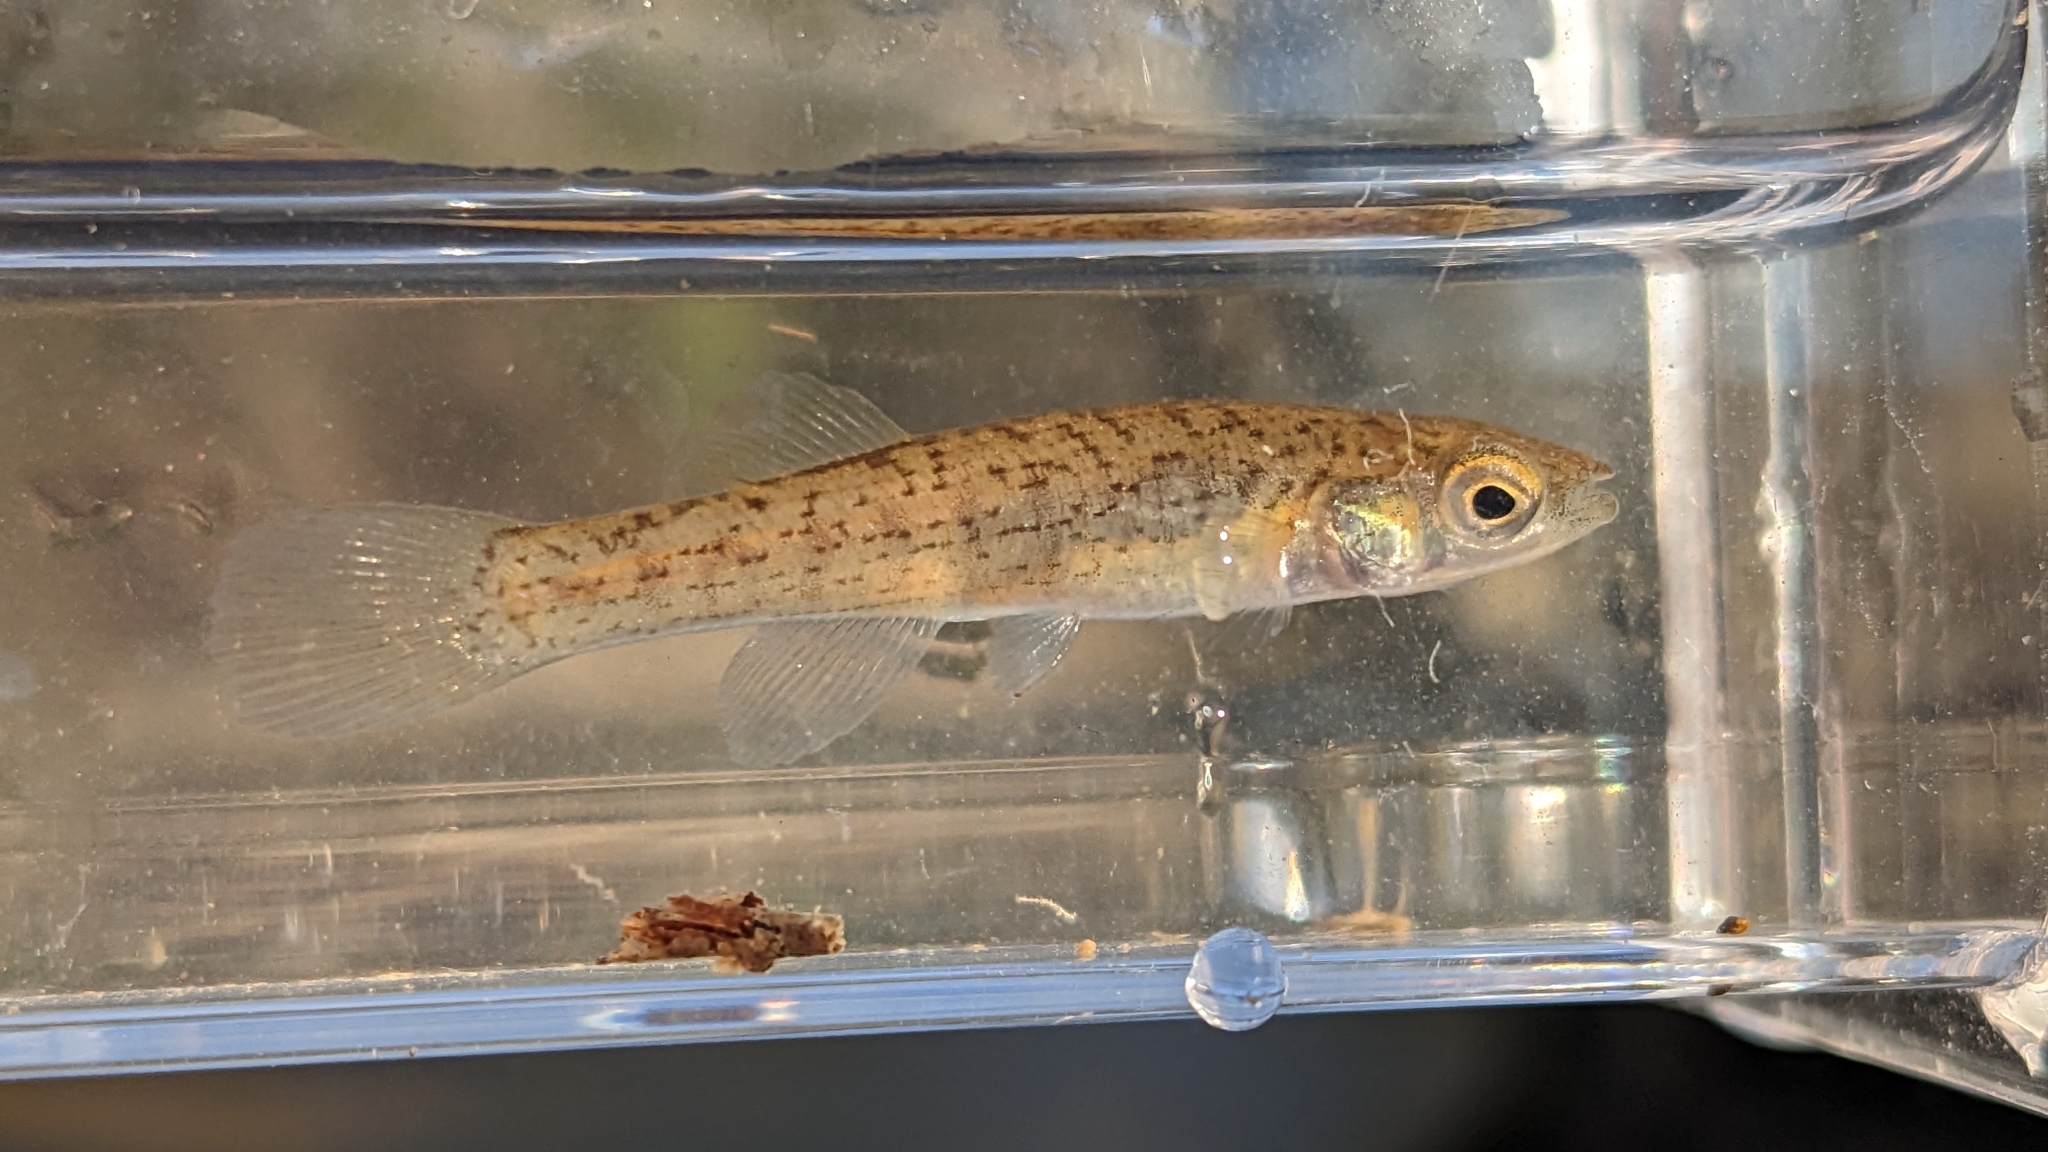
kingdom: Animalia
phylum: Chordata
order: Cyprinodontiformes
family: Fundulidae
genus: Fundulus
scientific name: Fundulus catenatus
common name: Northern studfish
